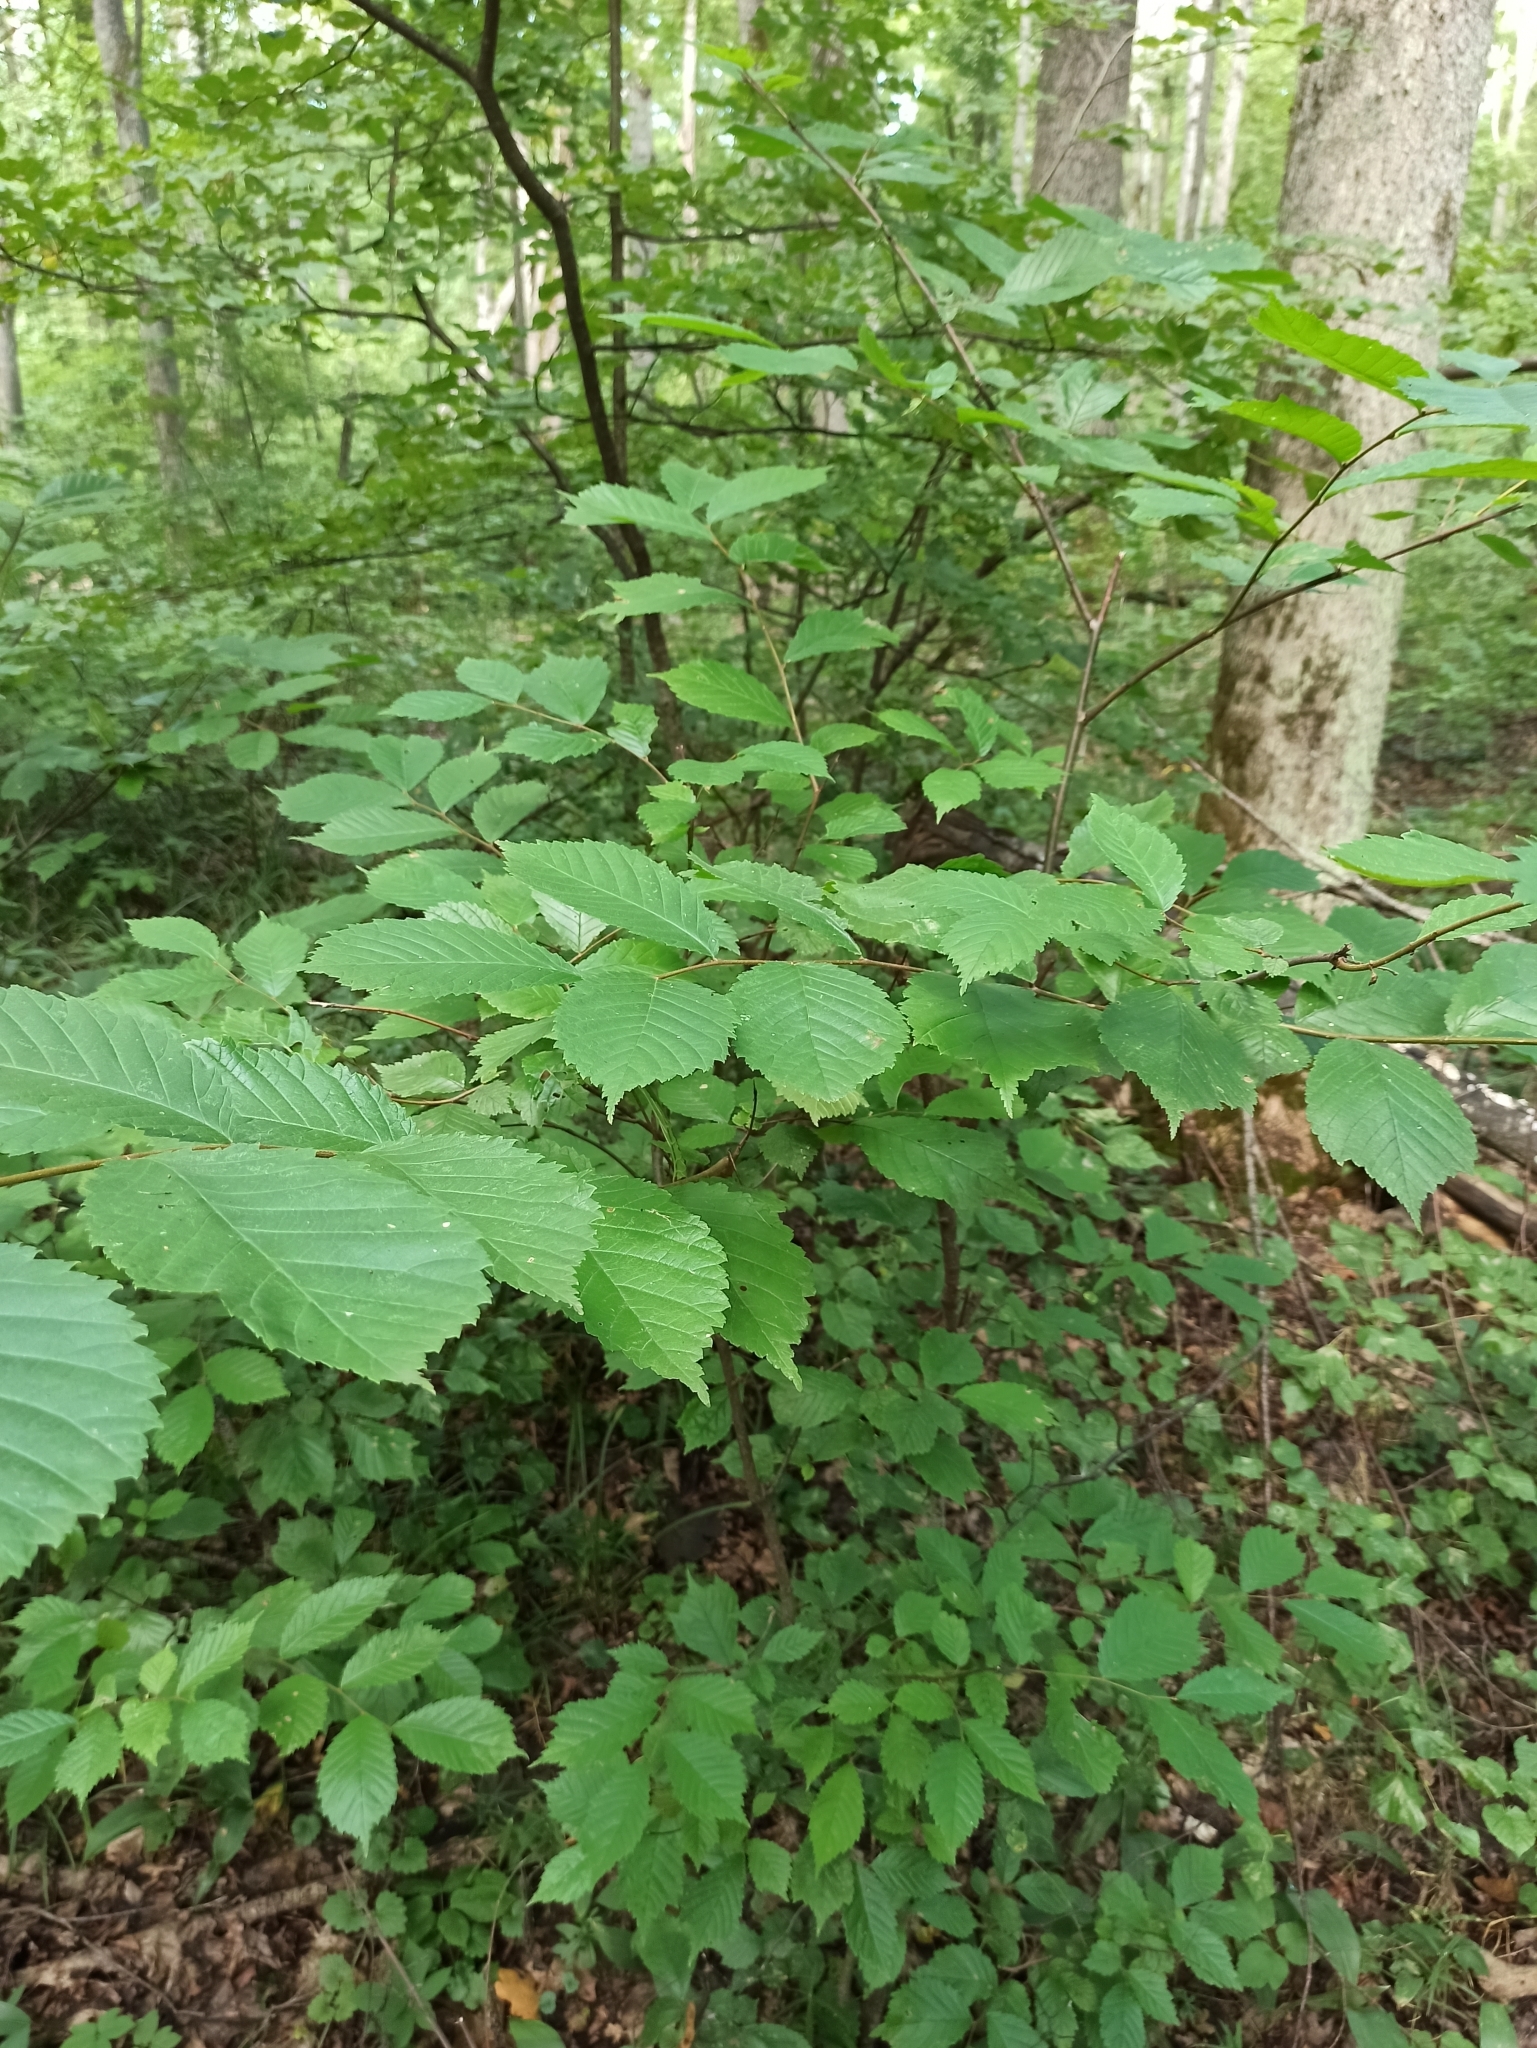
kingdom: Plantae
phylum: Tracheophyta
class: Magnoliopsida
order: Rosales
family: Ulmaceae
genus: Ulmus
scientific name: Ulmus glabra
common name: Wych elm
